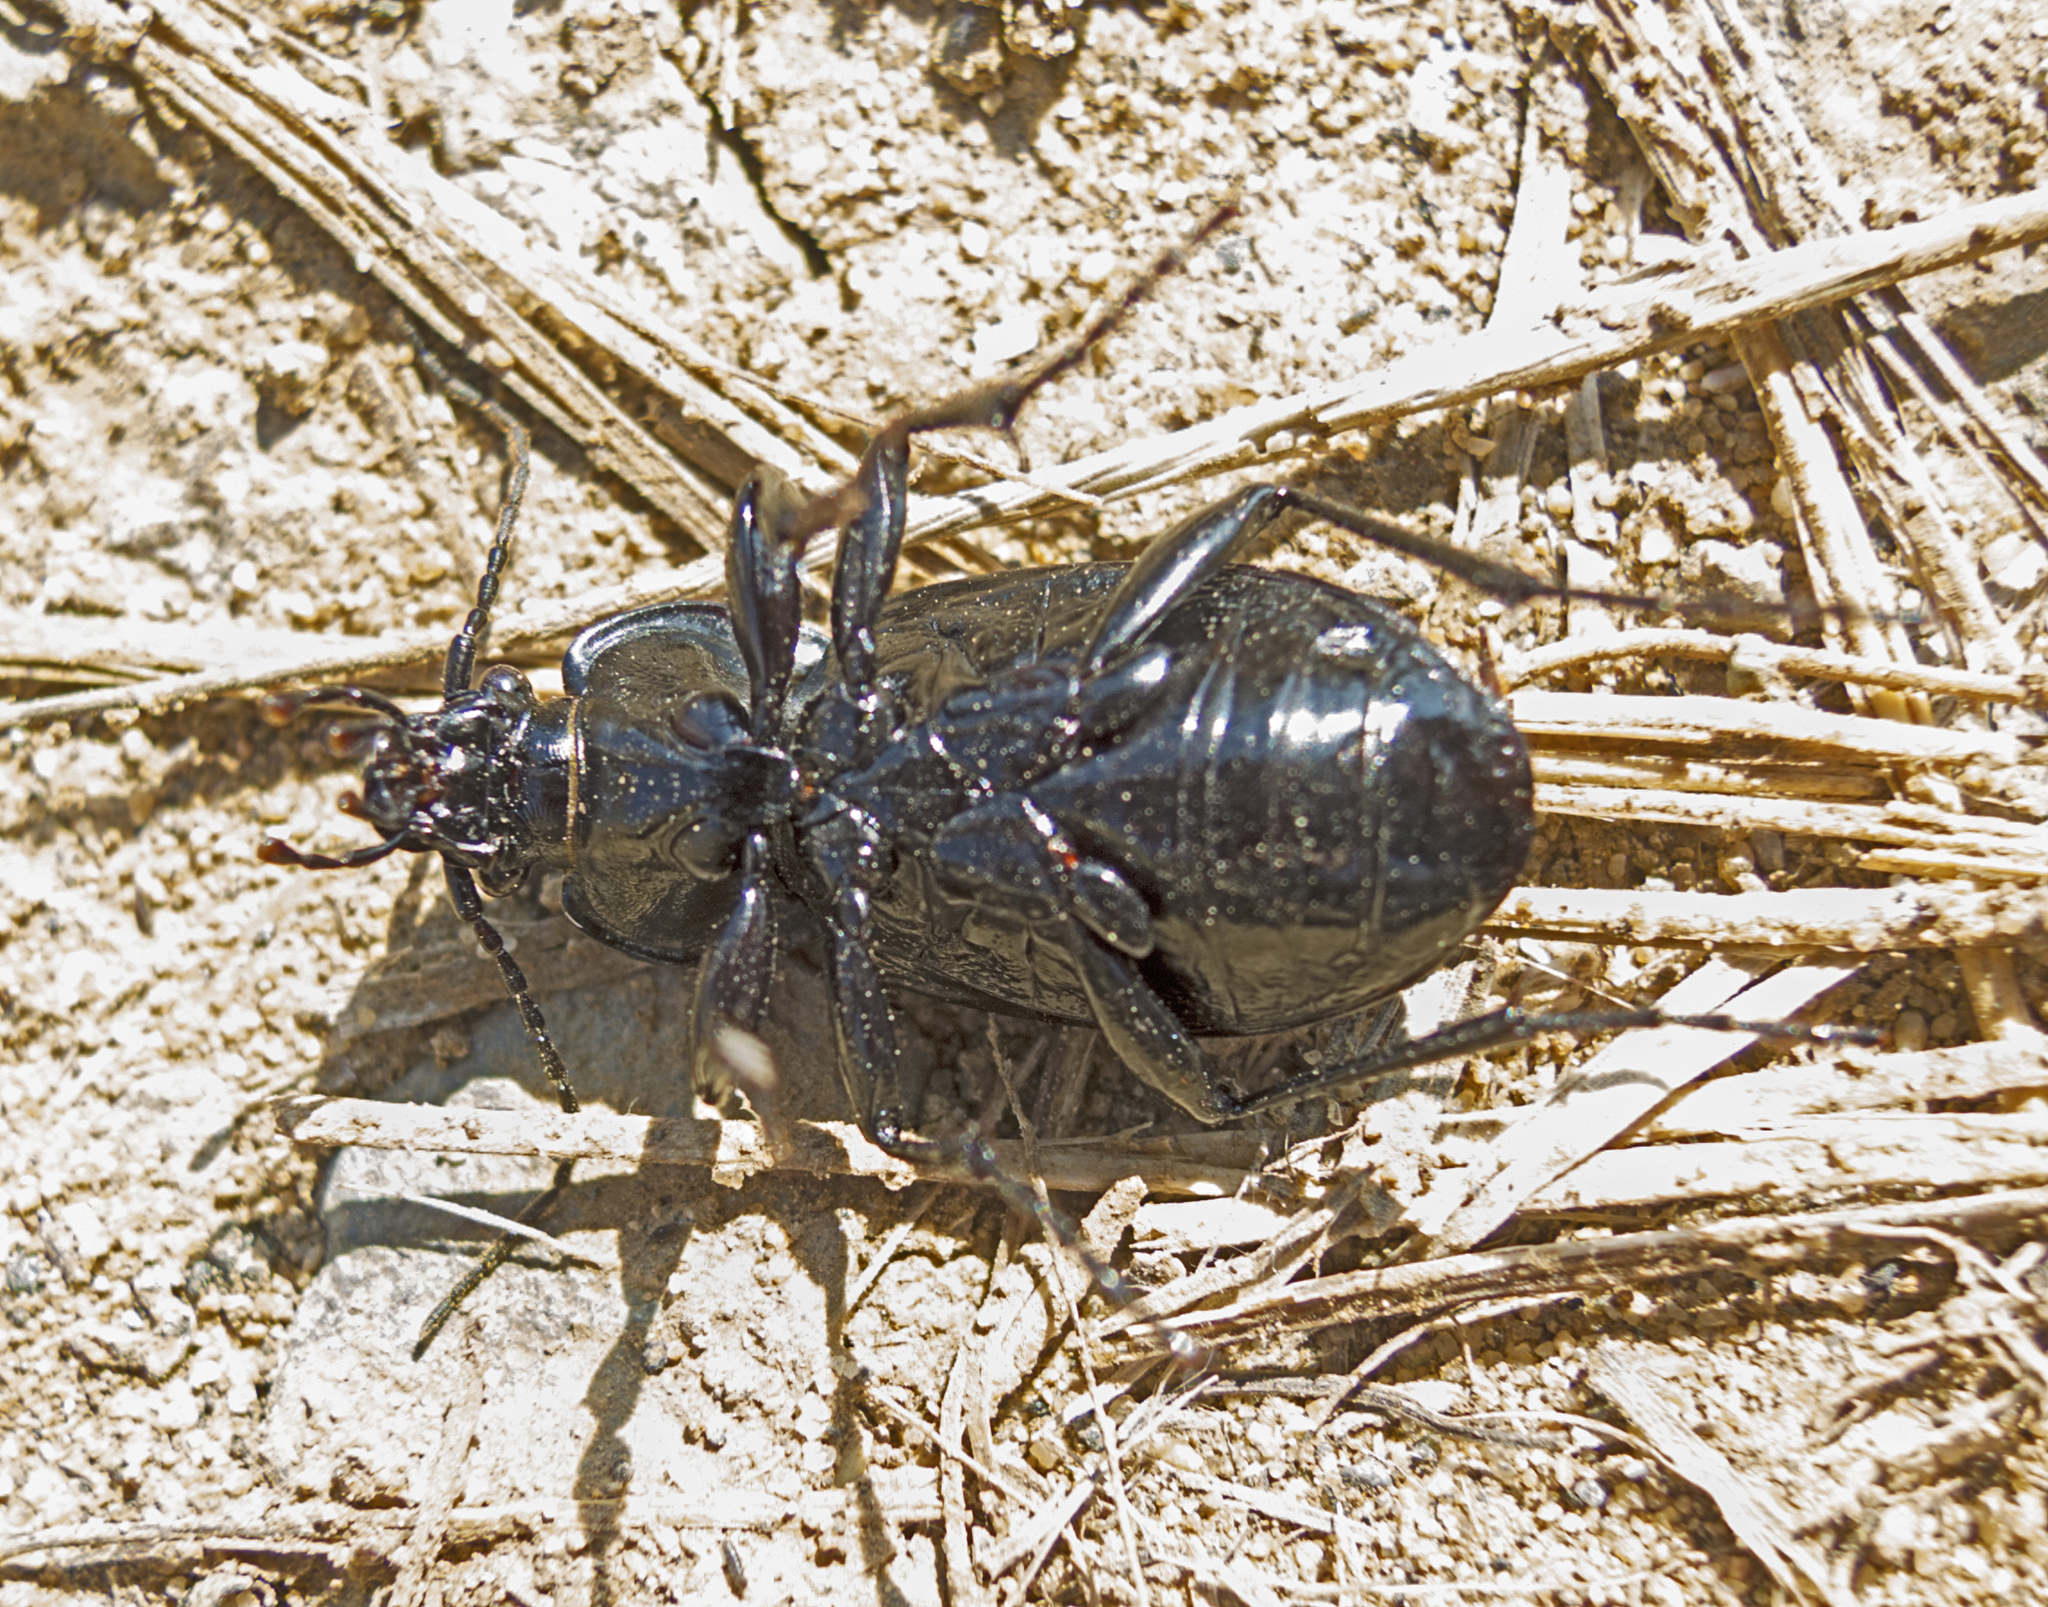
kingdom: Animalia
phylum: Arthropoda
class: Insecta
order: Coleoptera
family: Carabidae
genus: Carabus
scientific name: Carabus wiedemanni
